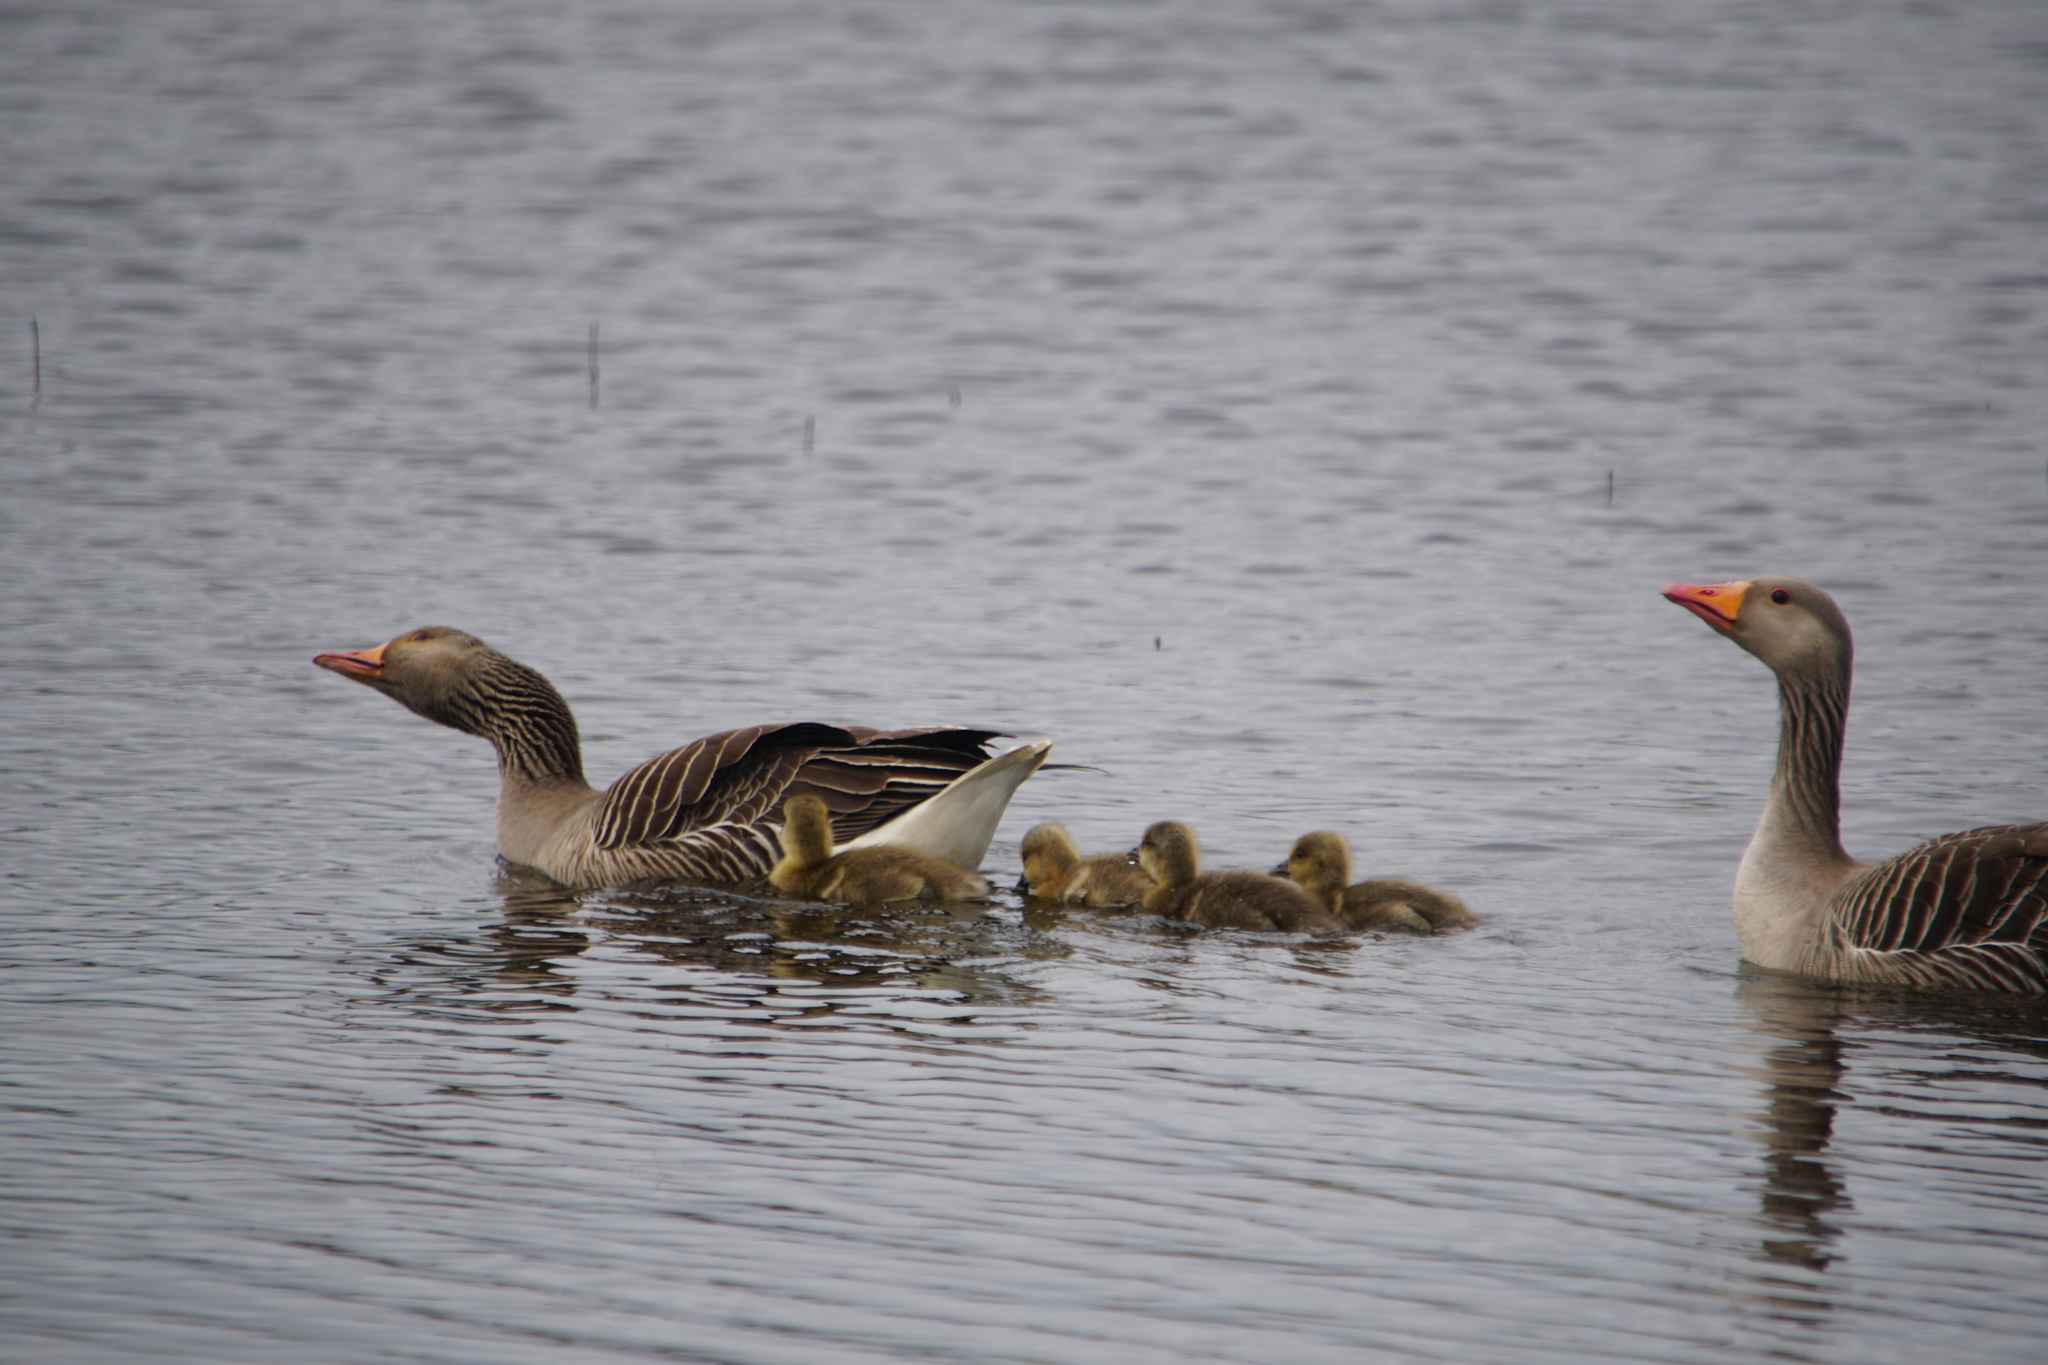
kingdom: Animalia
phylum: Chordata
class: Aves
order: Anseriformes
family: Anatidae
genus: Anser
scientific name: Anser anser
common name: Greylag goose
